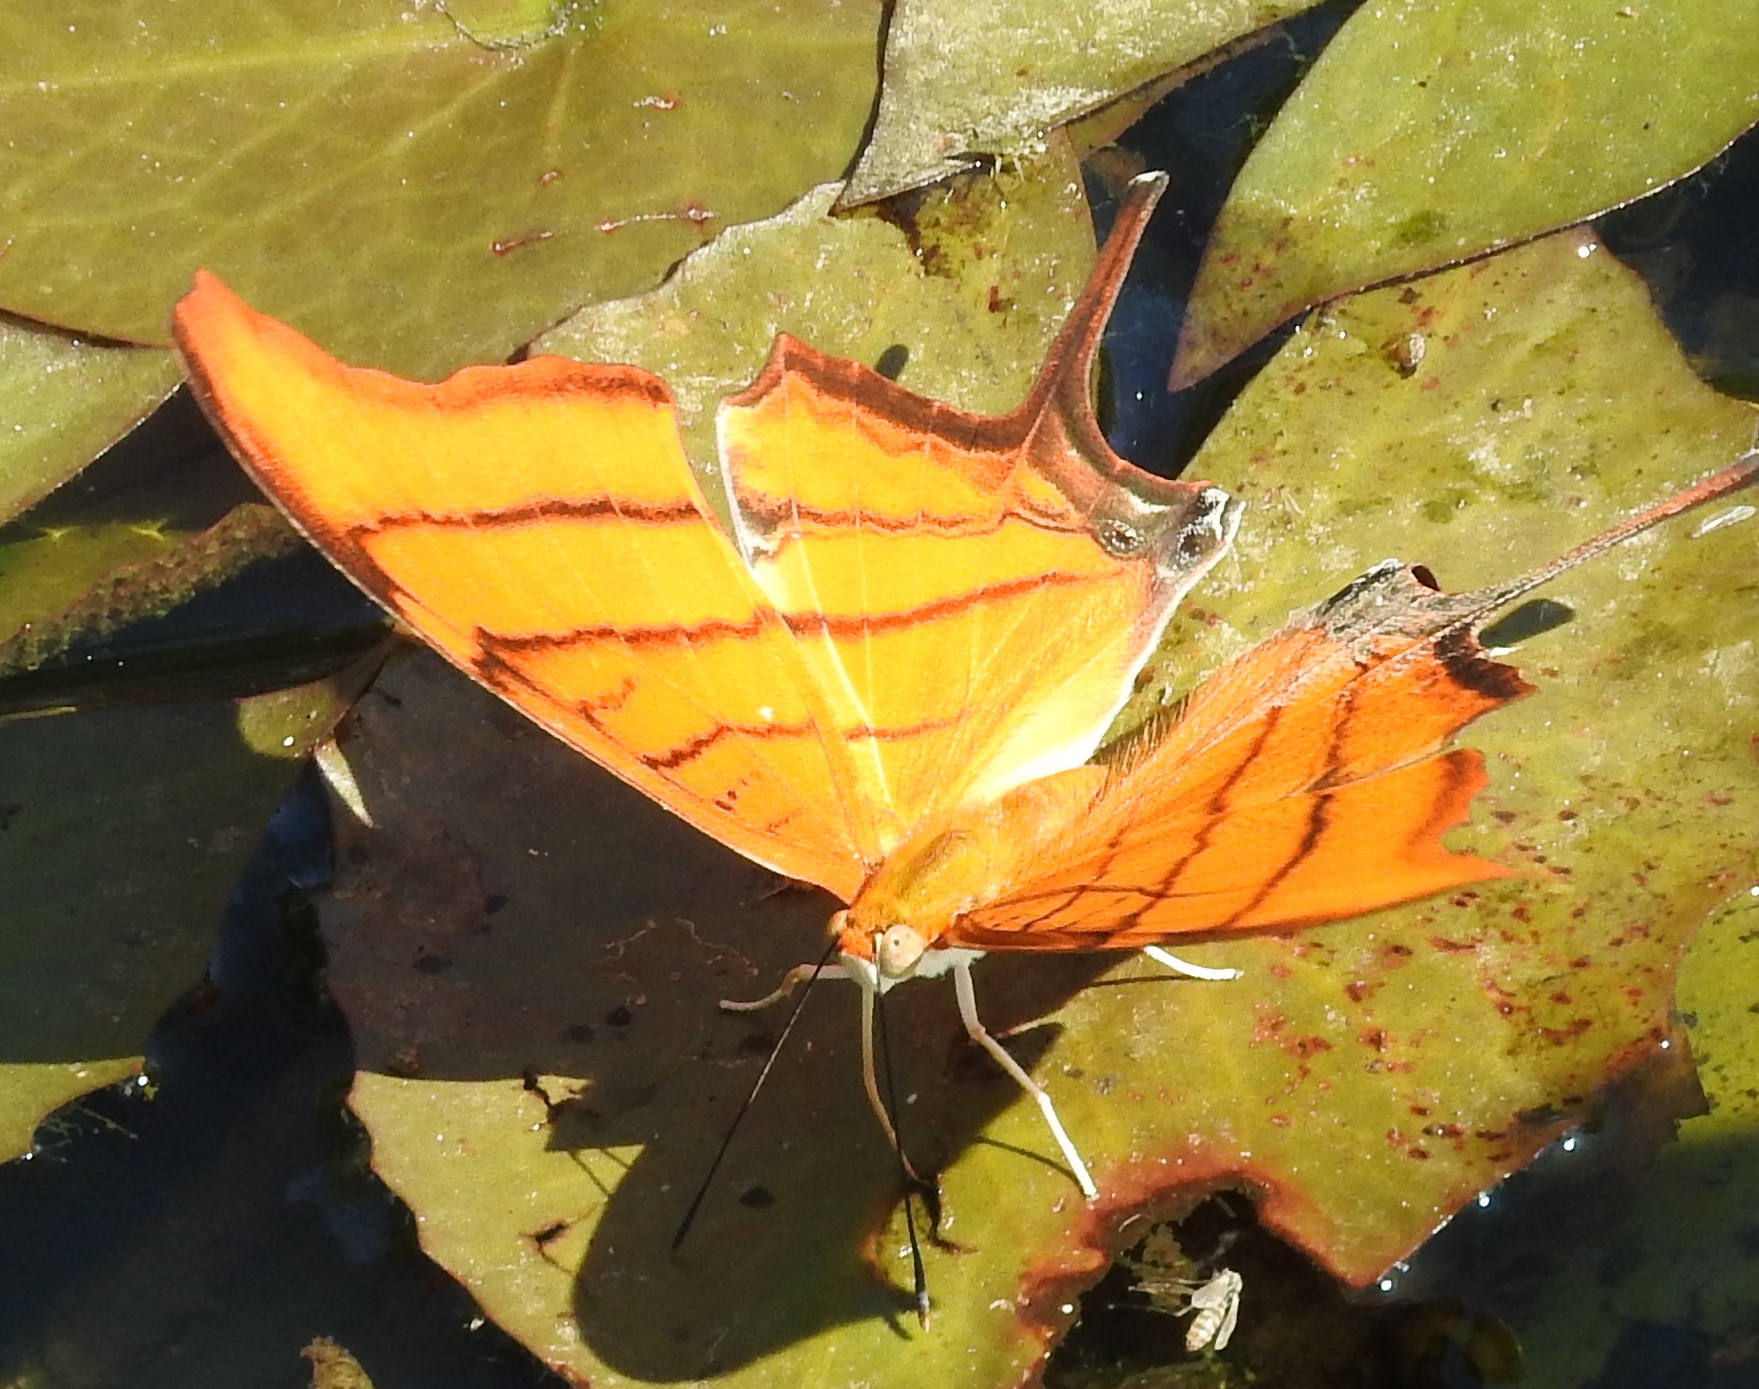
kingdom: Animalia
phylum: Arthropoda
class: Insecta
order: Lepidoptera
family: Nymphalidae
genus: Marpesia
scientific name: Marpesia petreus
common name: Red dagger wing
